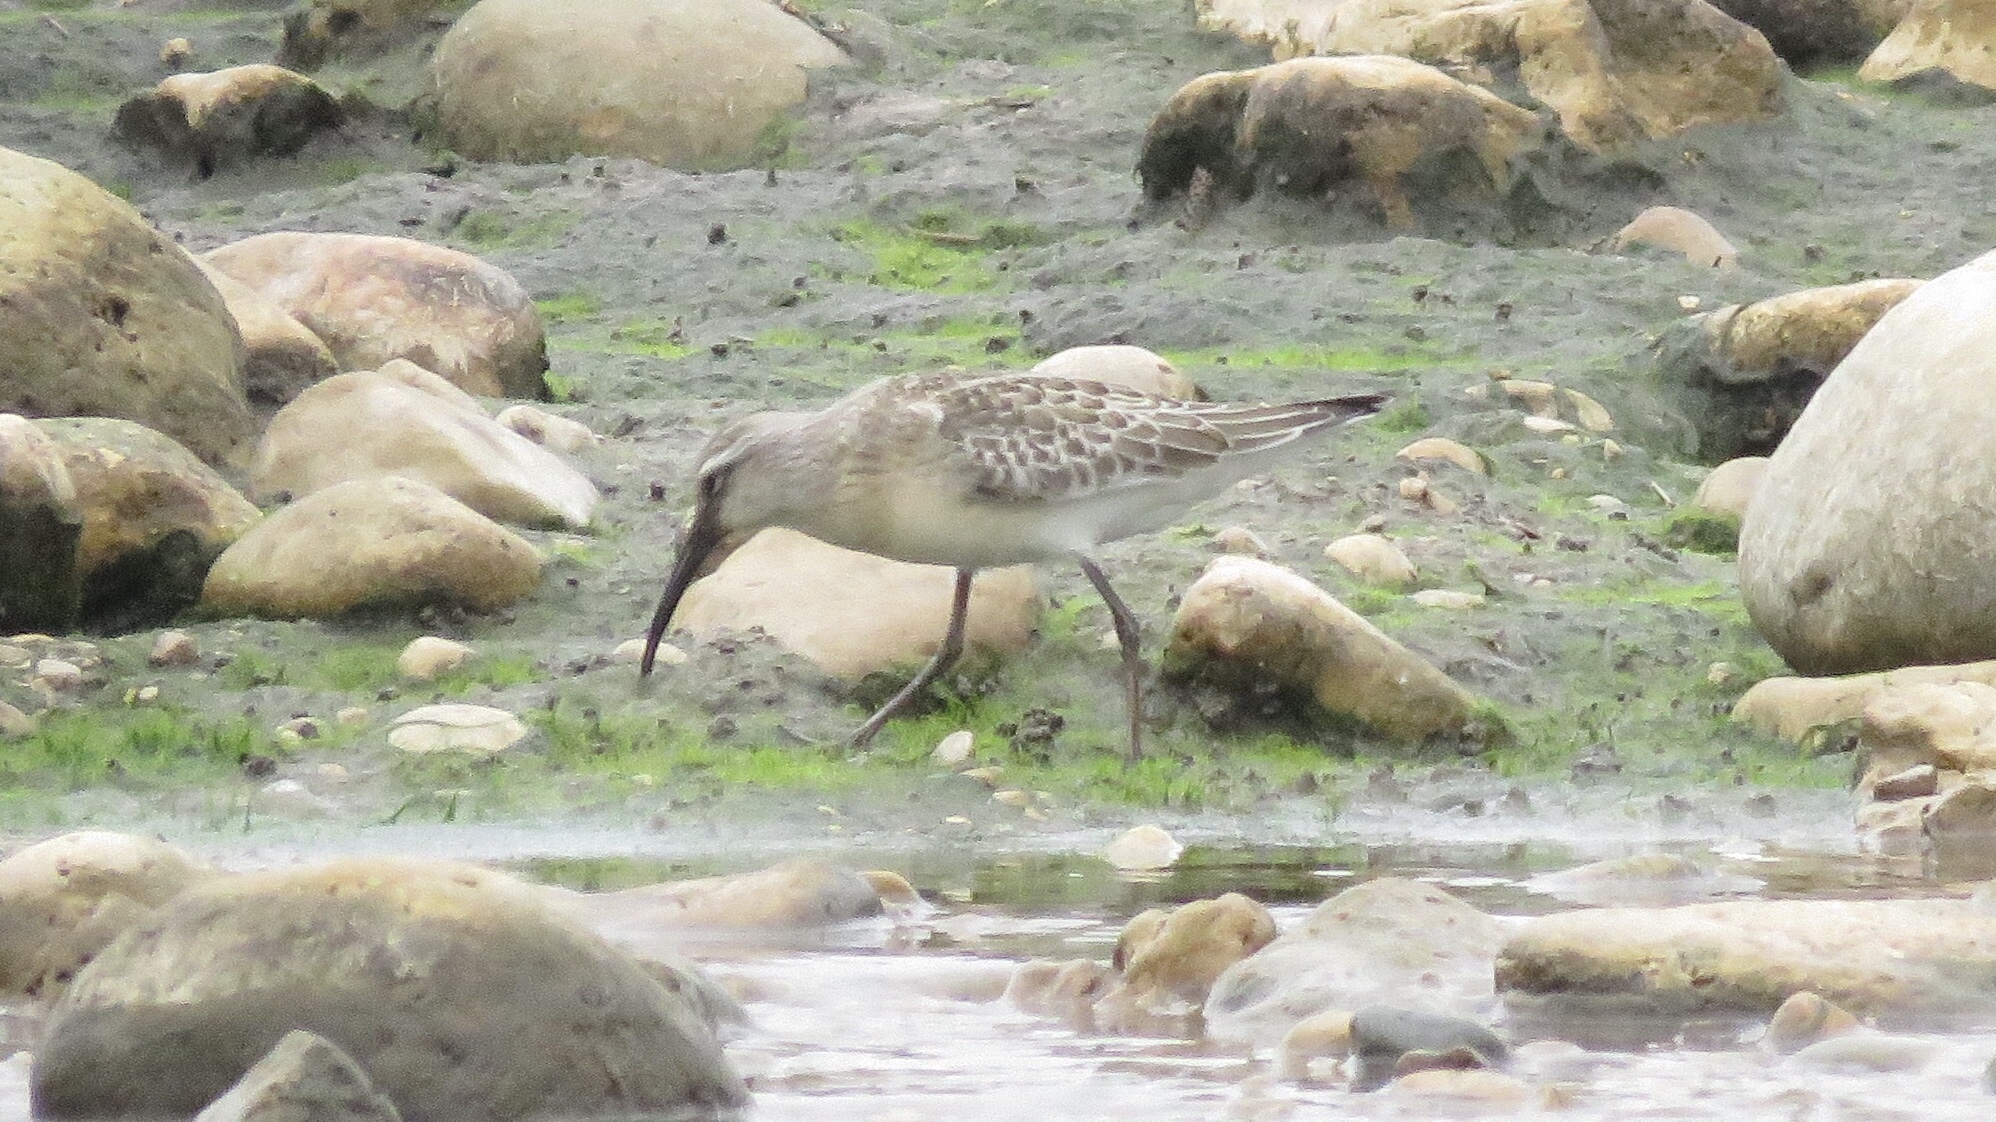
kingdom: Animalia
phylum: Chordata
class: Aves
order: Charadriiformes
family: Scolopacidae
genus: Calidris
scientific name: Calidris ferruginea
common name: Curlew sandpiper
